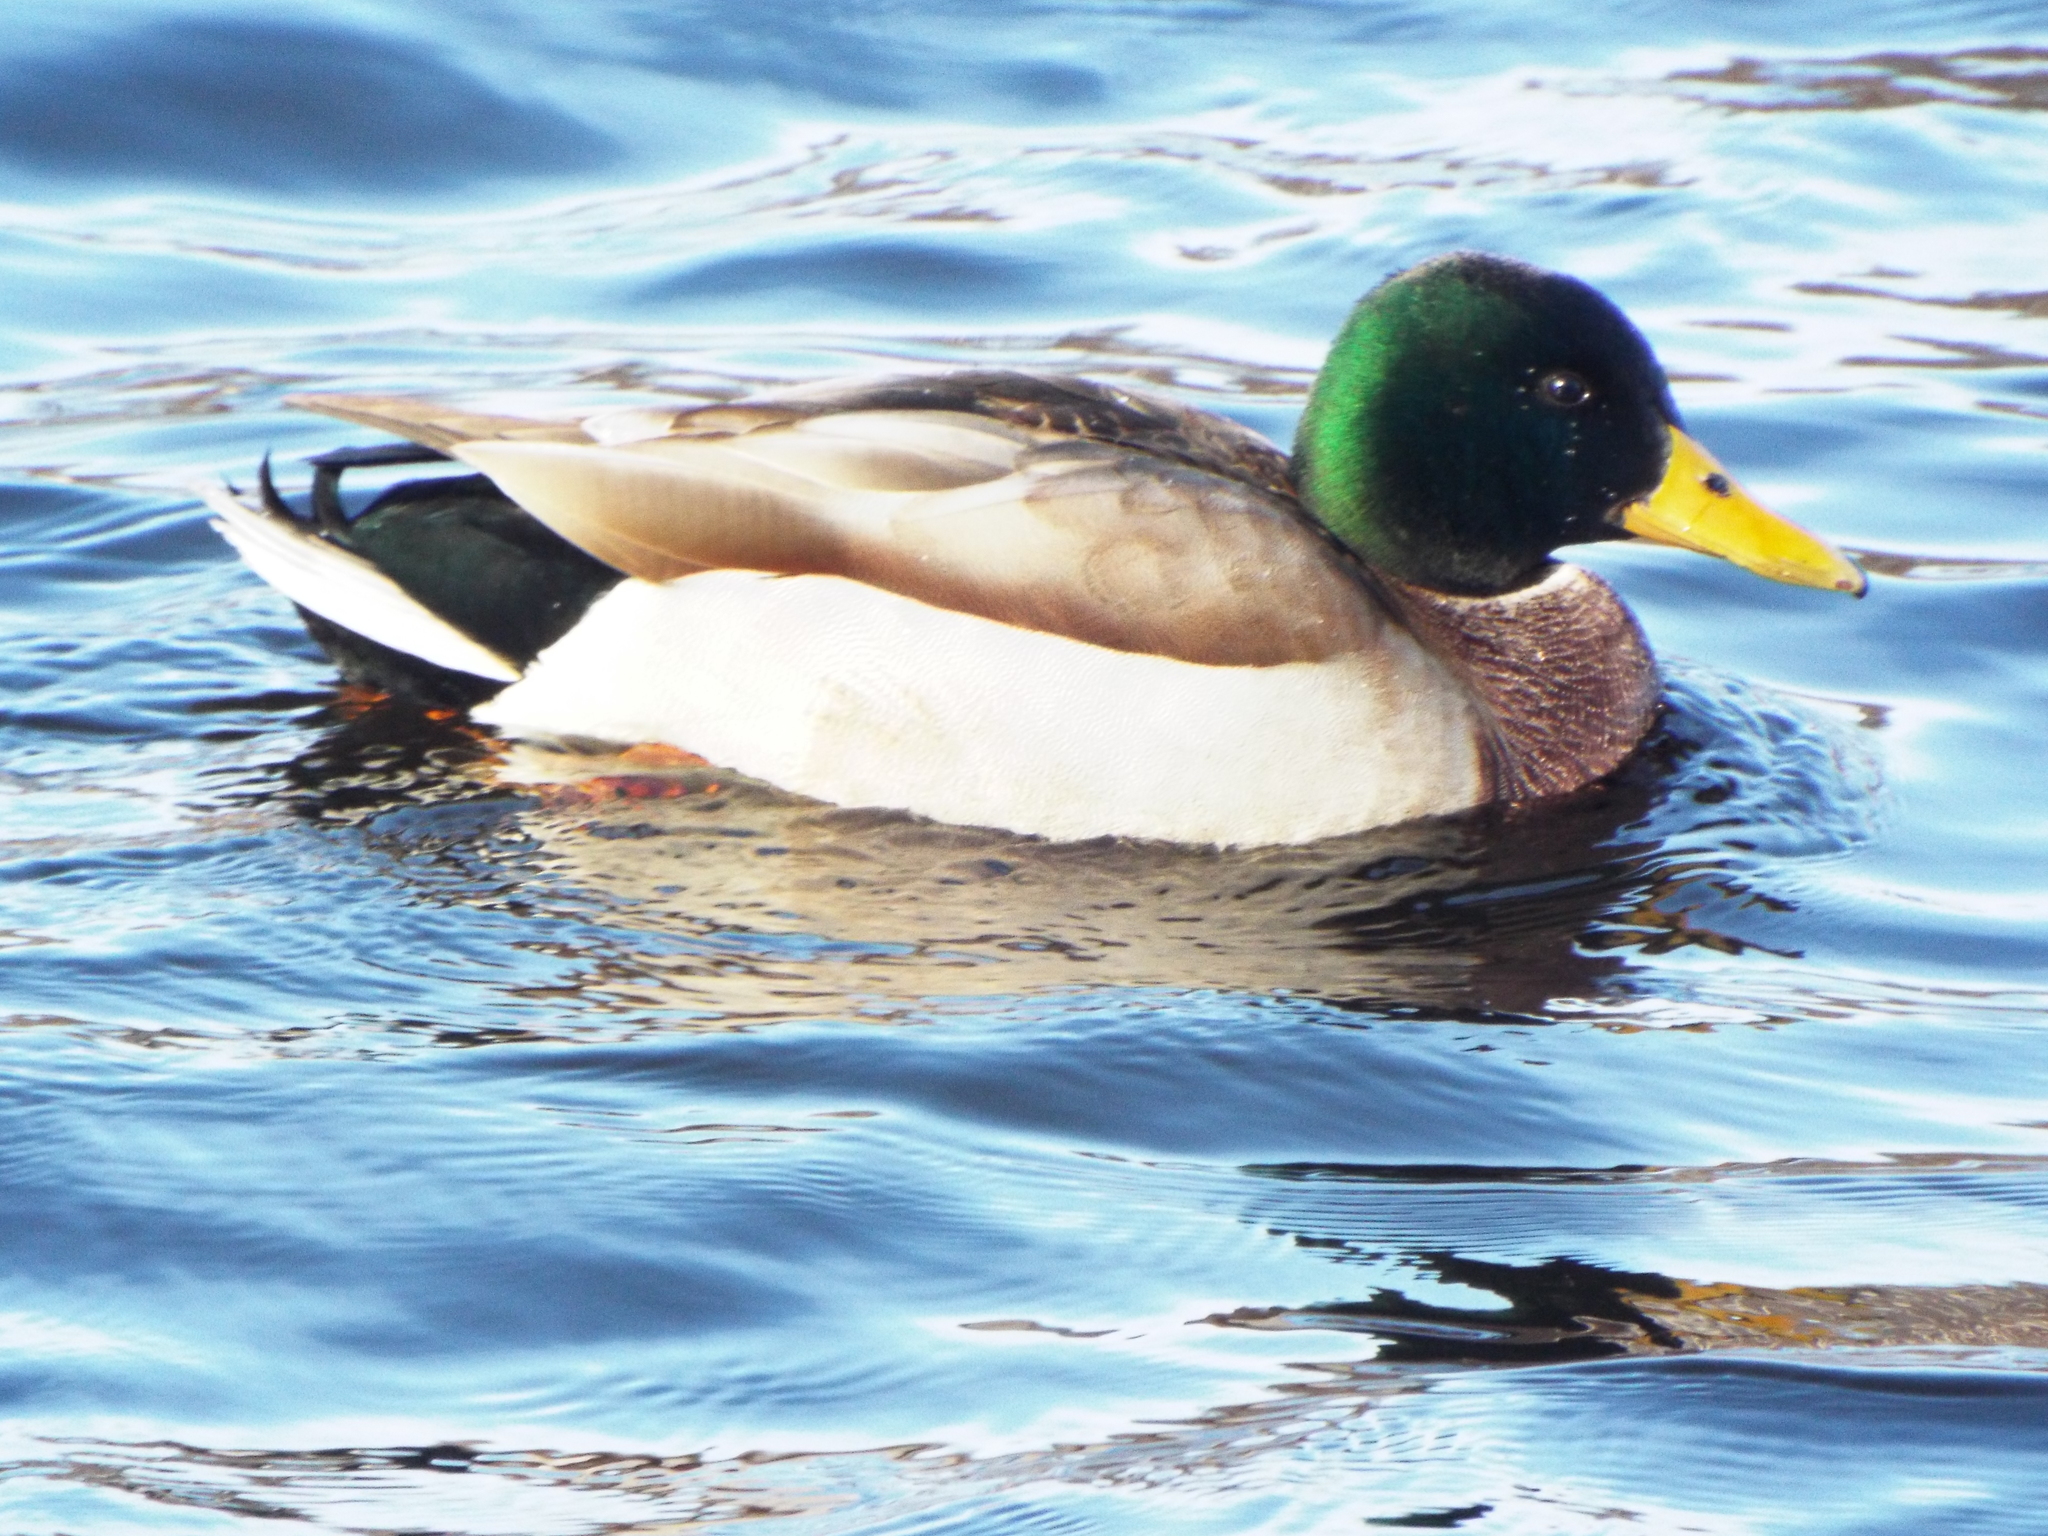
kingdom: Animalia
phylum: Chordata
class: Aves
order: Anseriformes
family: Anatidae
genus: Anas
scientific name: Anas platyrhynchos
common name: Mallard
